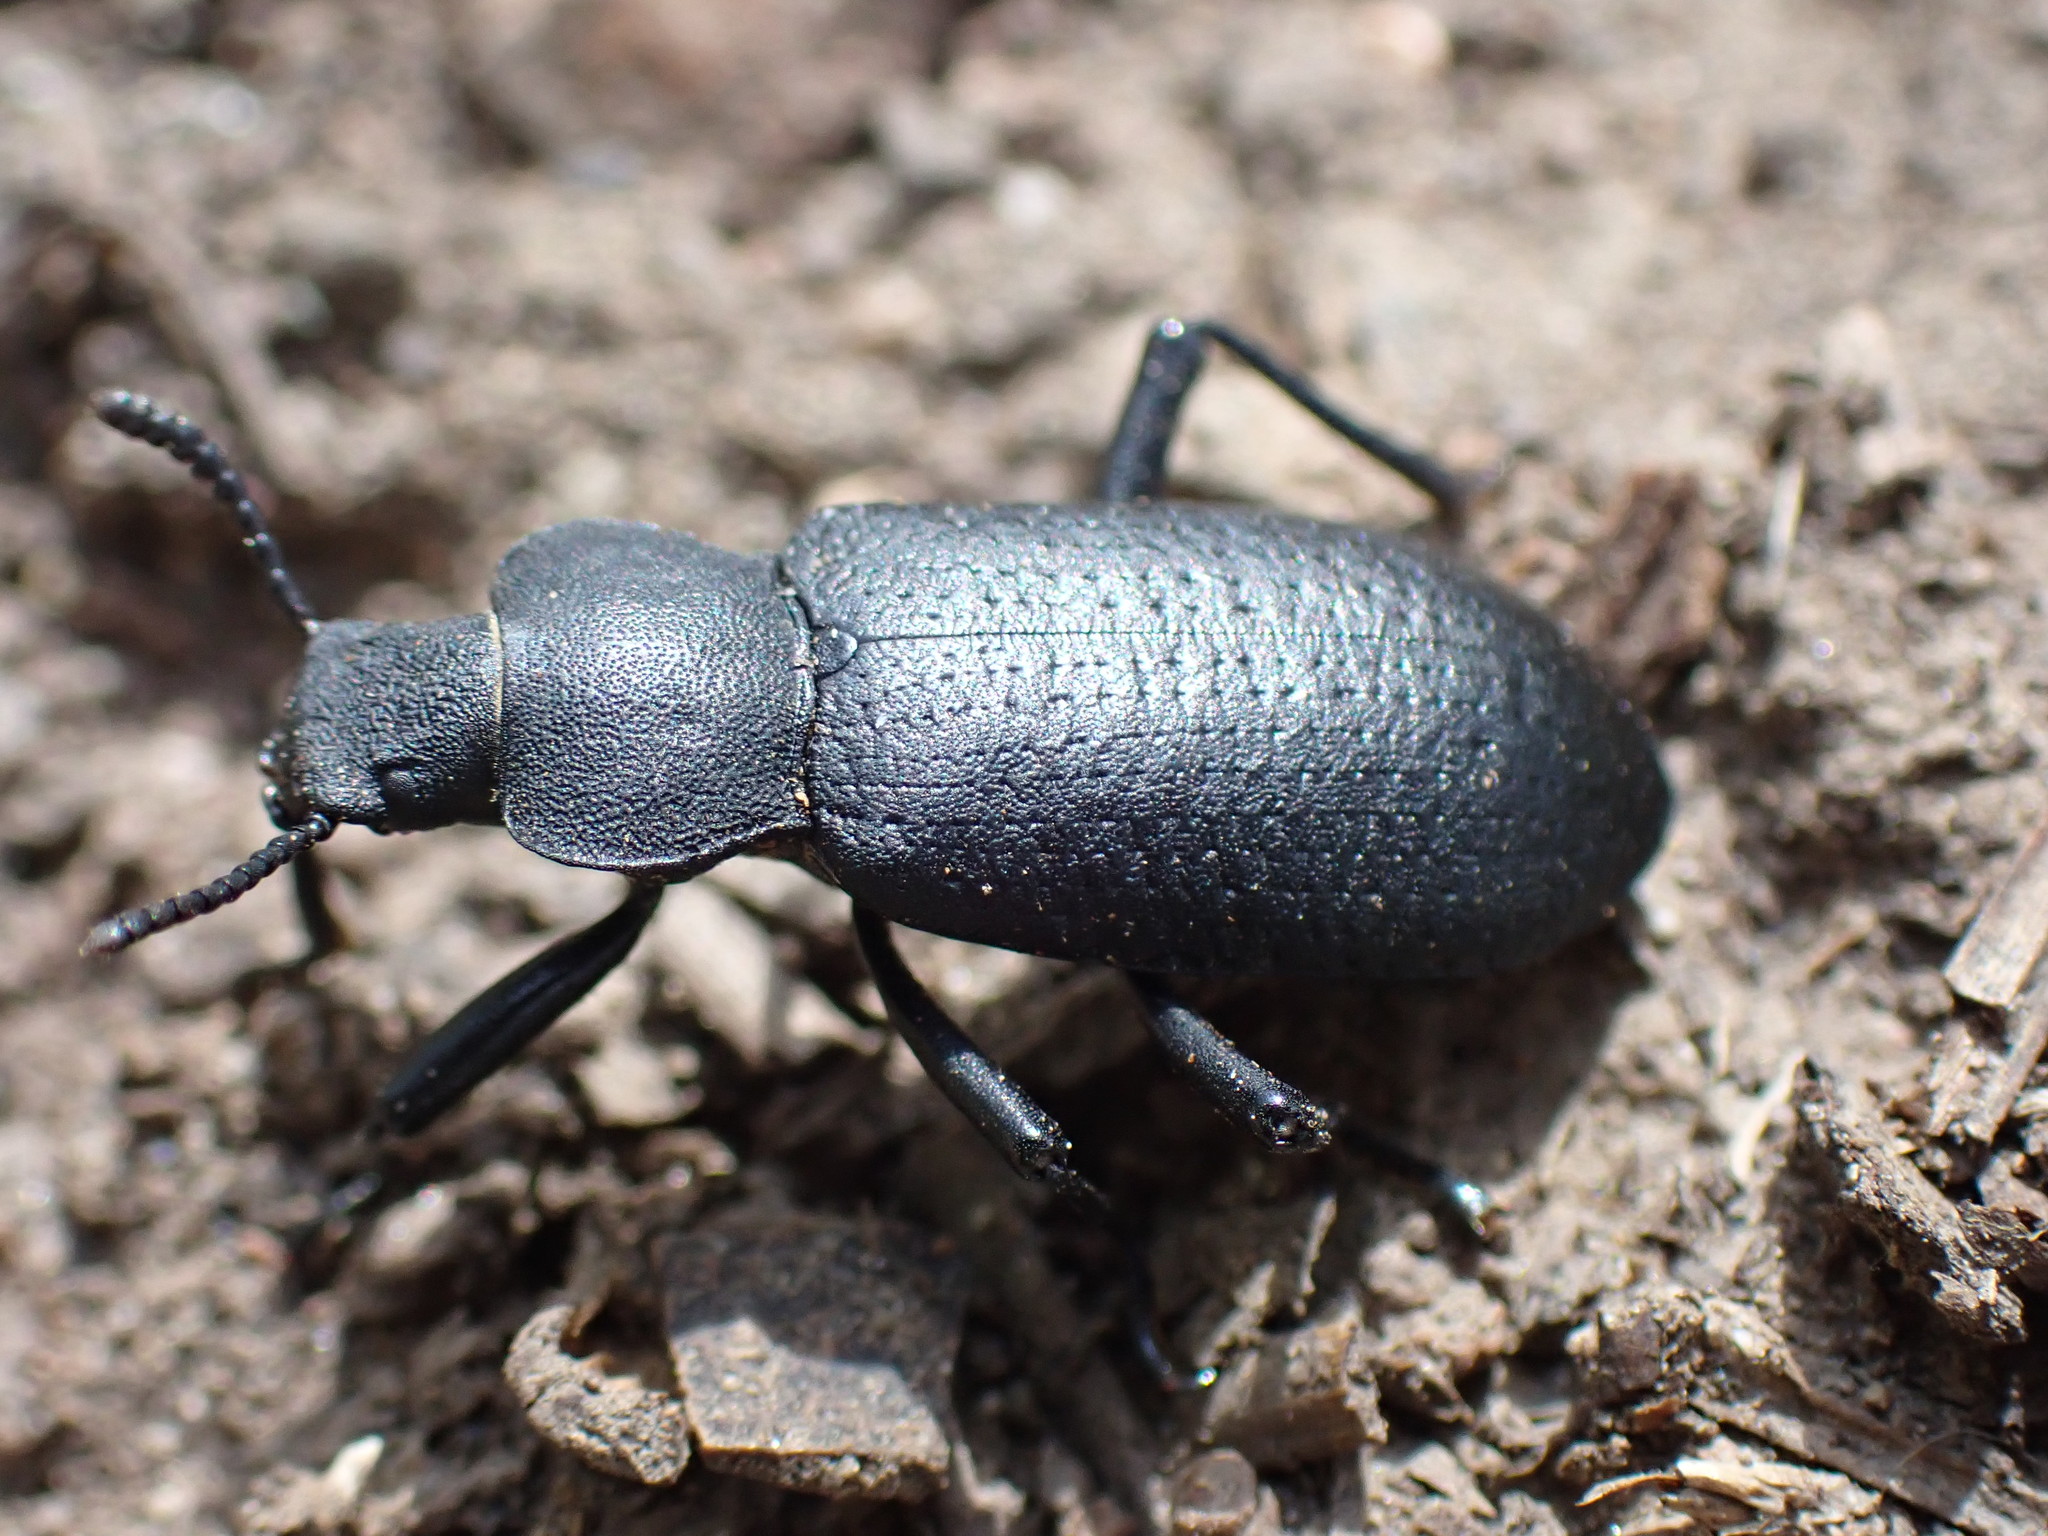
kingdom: Animalia
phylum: Arthropoda
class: Insecta
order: Coleoptera
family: Tenebrionidae
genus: Iphthiminus
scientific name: Iphthiminus serratus
